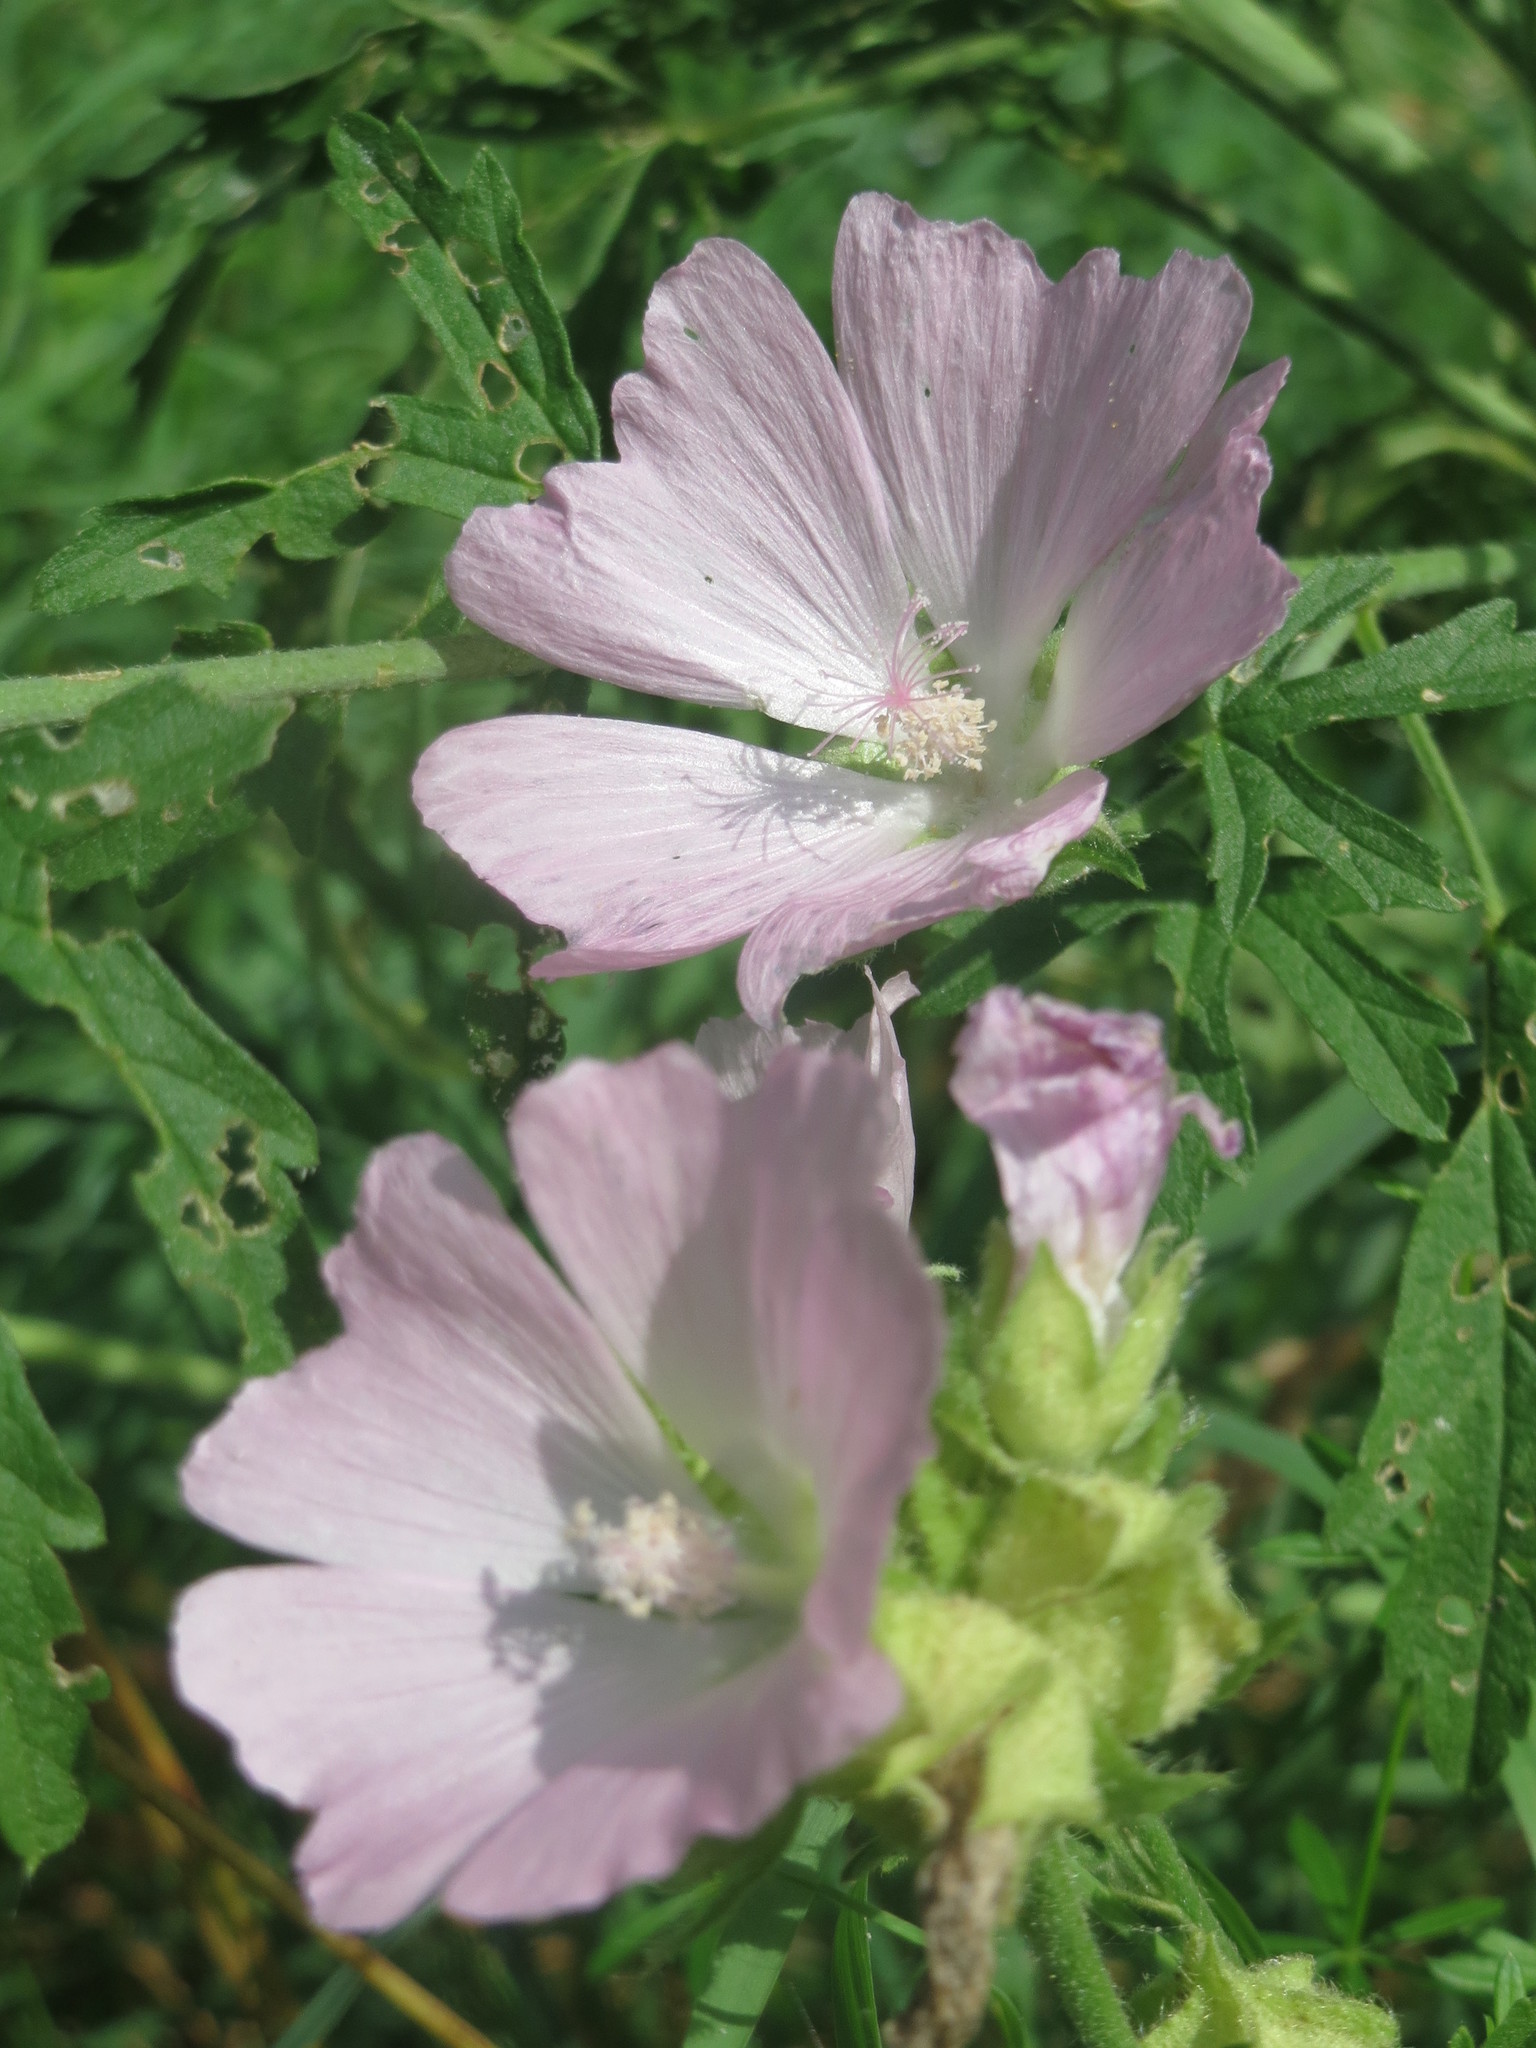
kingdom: Plantae
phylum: Tracheophyta
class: Magnoliopsida
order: Malvales
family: Malvaceae
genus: Malva
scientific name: Malva alcea
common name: Greater musk-mallow
